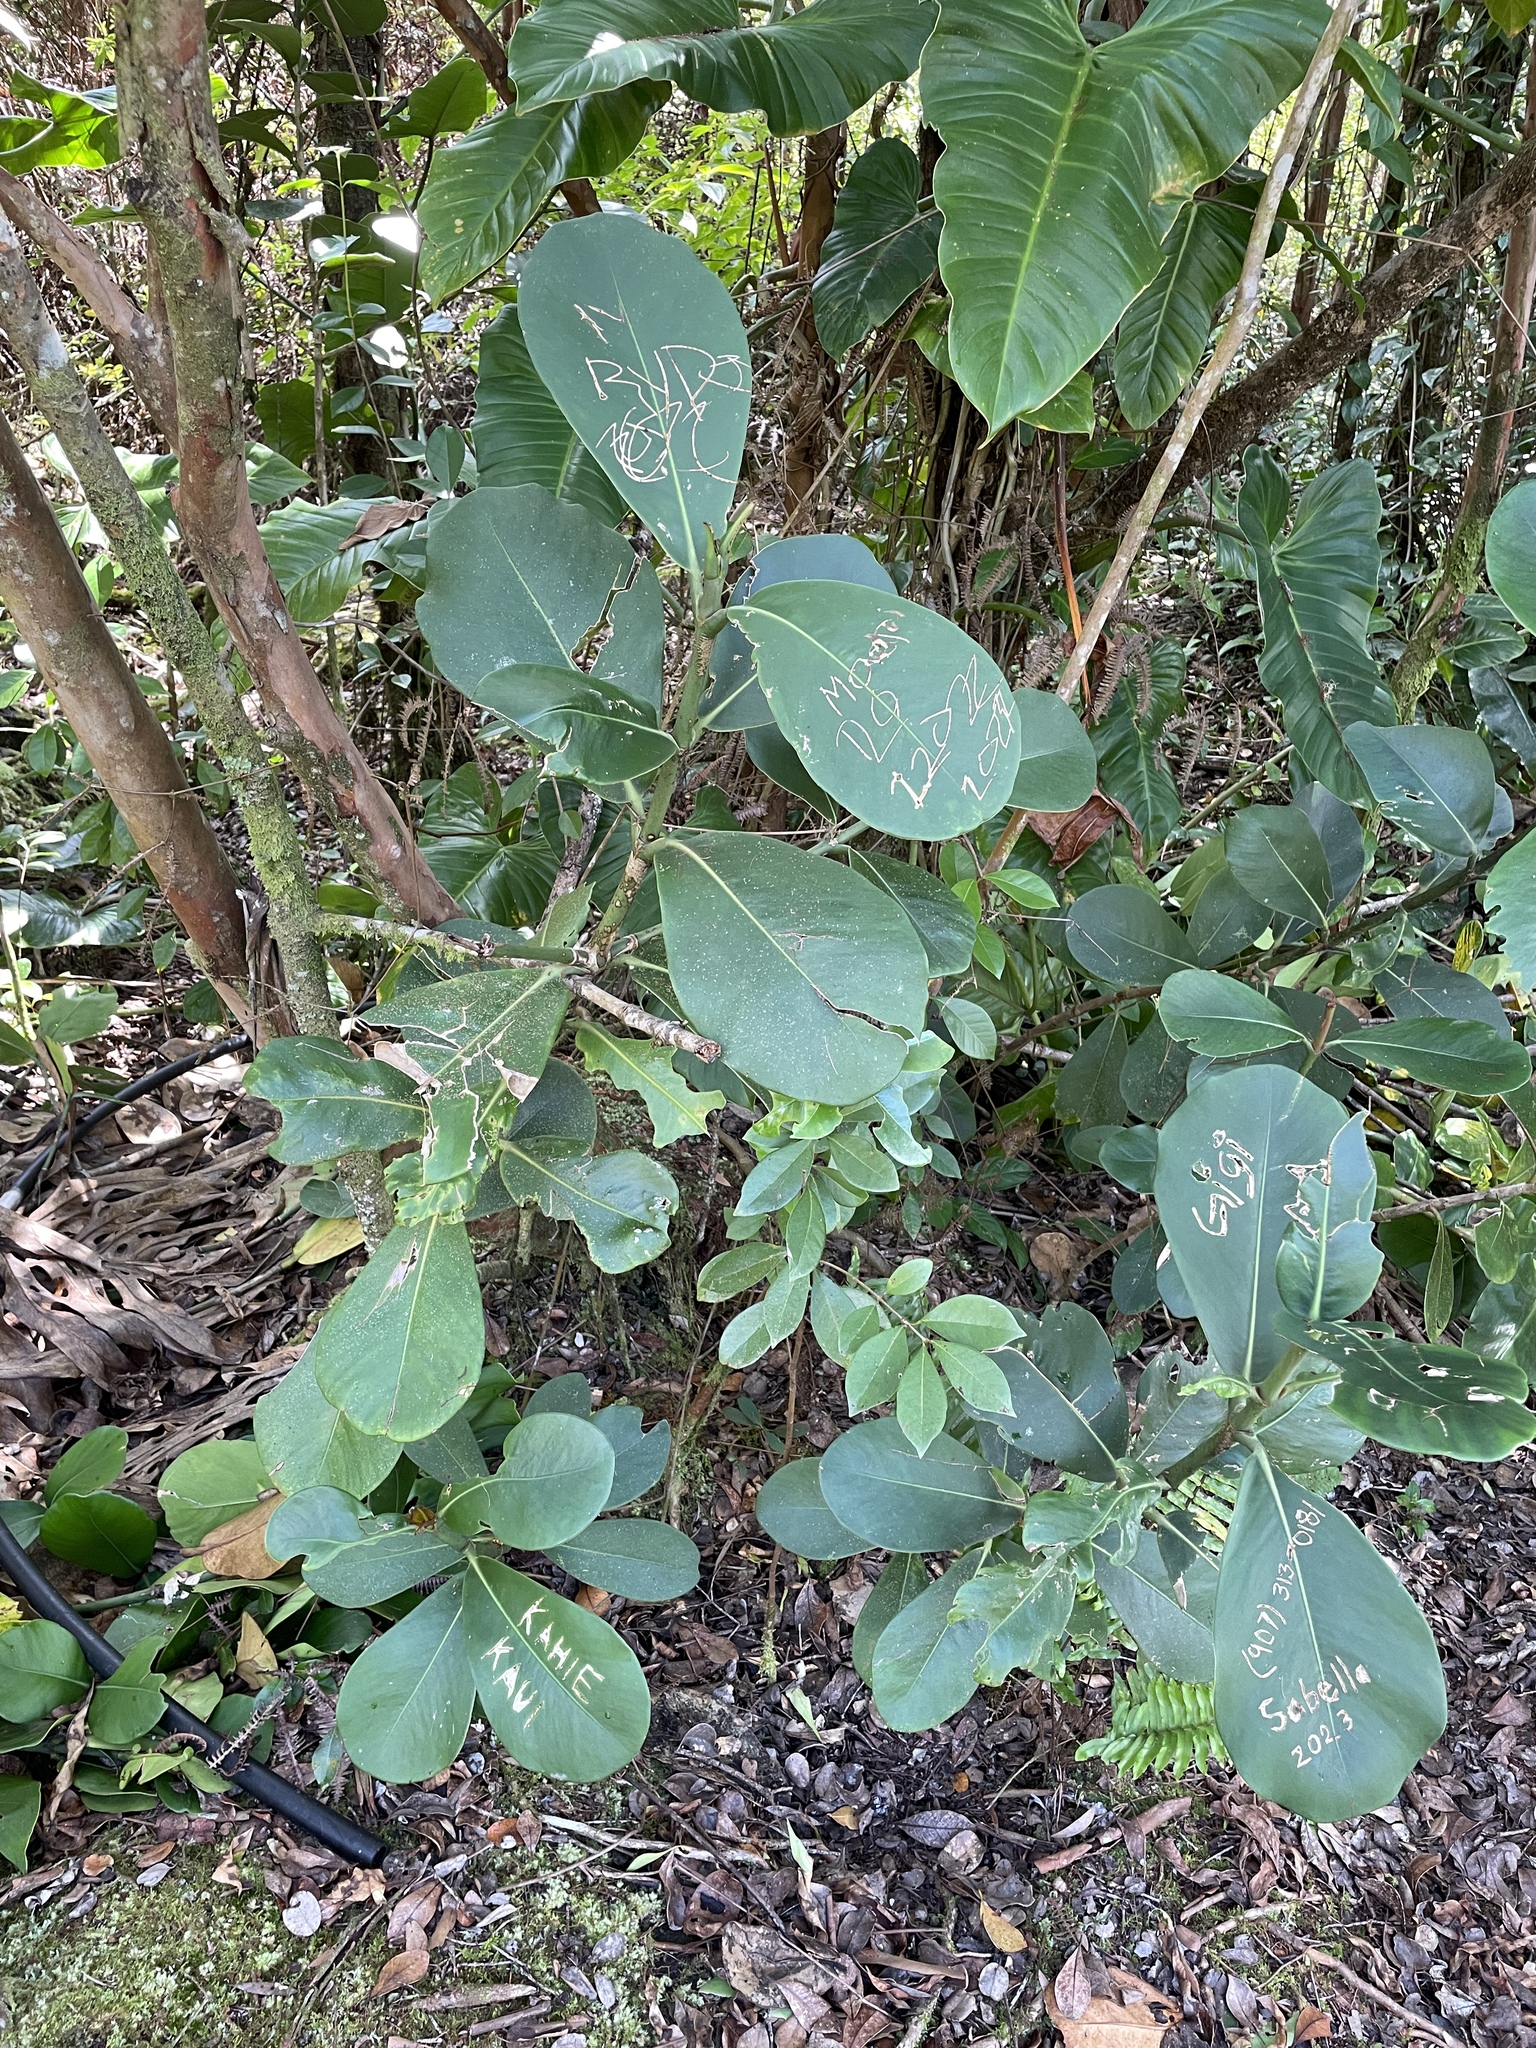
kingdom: Plantae
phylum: Tracheophyta
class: Magnoliopsida
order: Malpighiales
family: Clusiaceae
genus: Clusia
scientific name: Clusia rosea
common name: Scotch attorney
